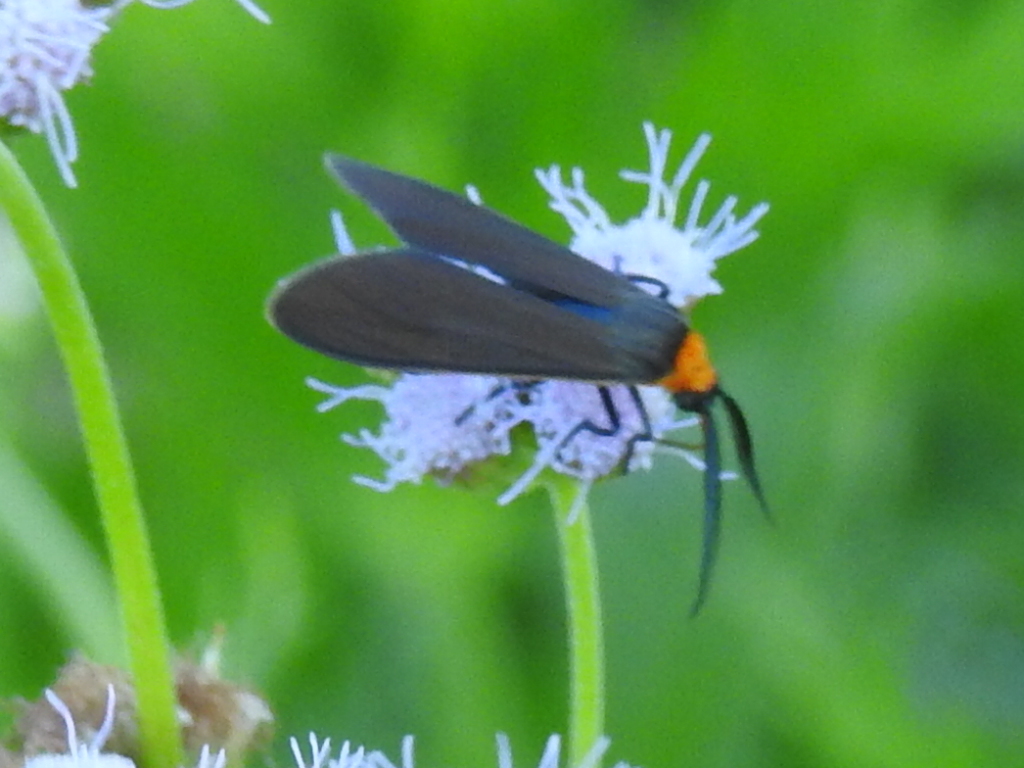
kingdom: Animalia
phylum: Arthropoda
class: Insecta
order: Lepidoptera
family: Erebidae
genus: Cisseps
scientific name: Cisseps fulvicollis
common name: Yellow-collared scape moth
